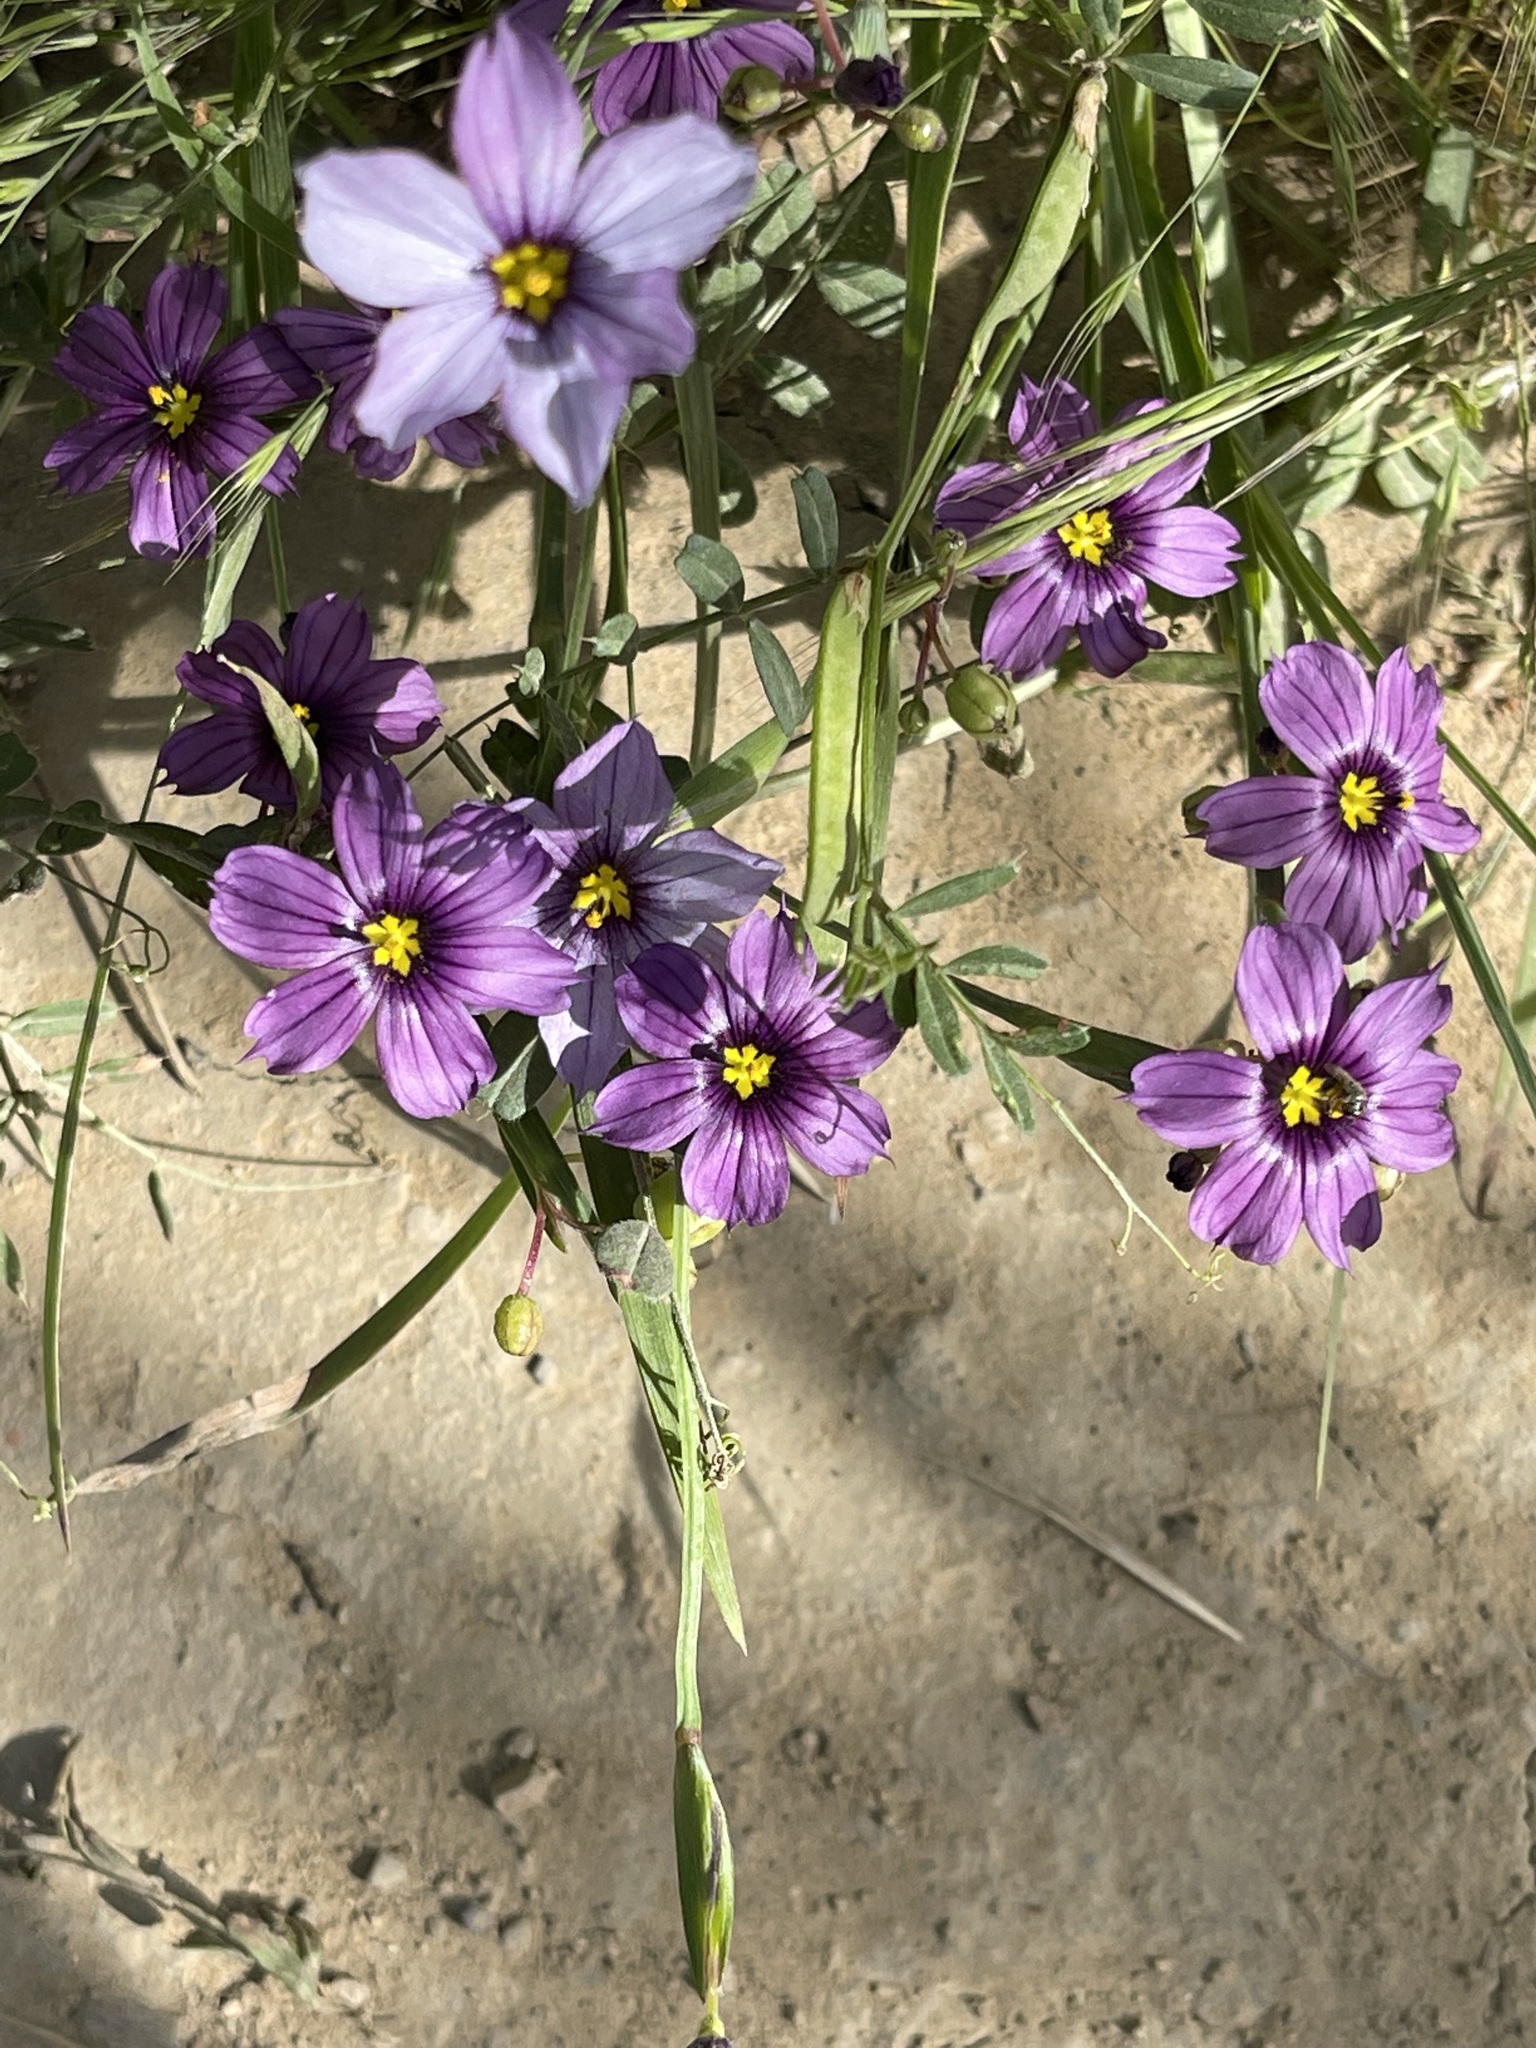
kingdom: Plantae
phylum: Tracheophyta
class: Liliopsida
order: Asparagales
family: Iridaceae
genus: Sisyrinchium
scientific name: Sisyrinchium bellum
